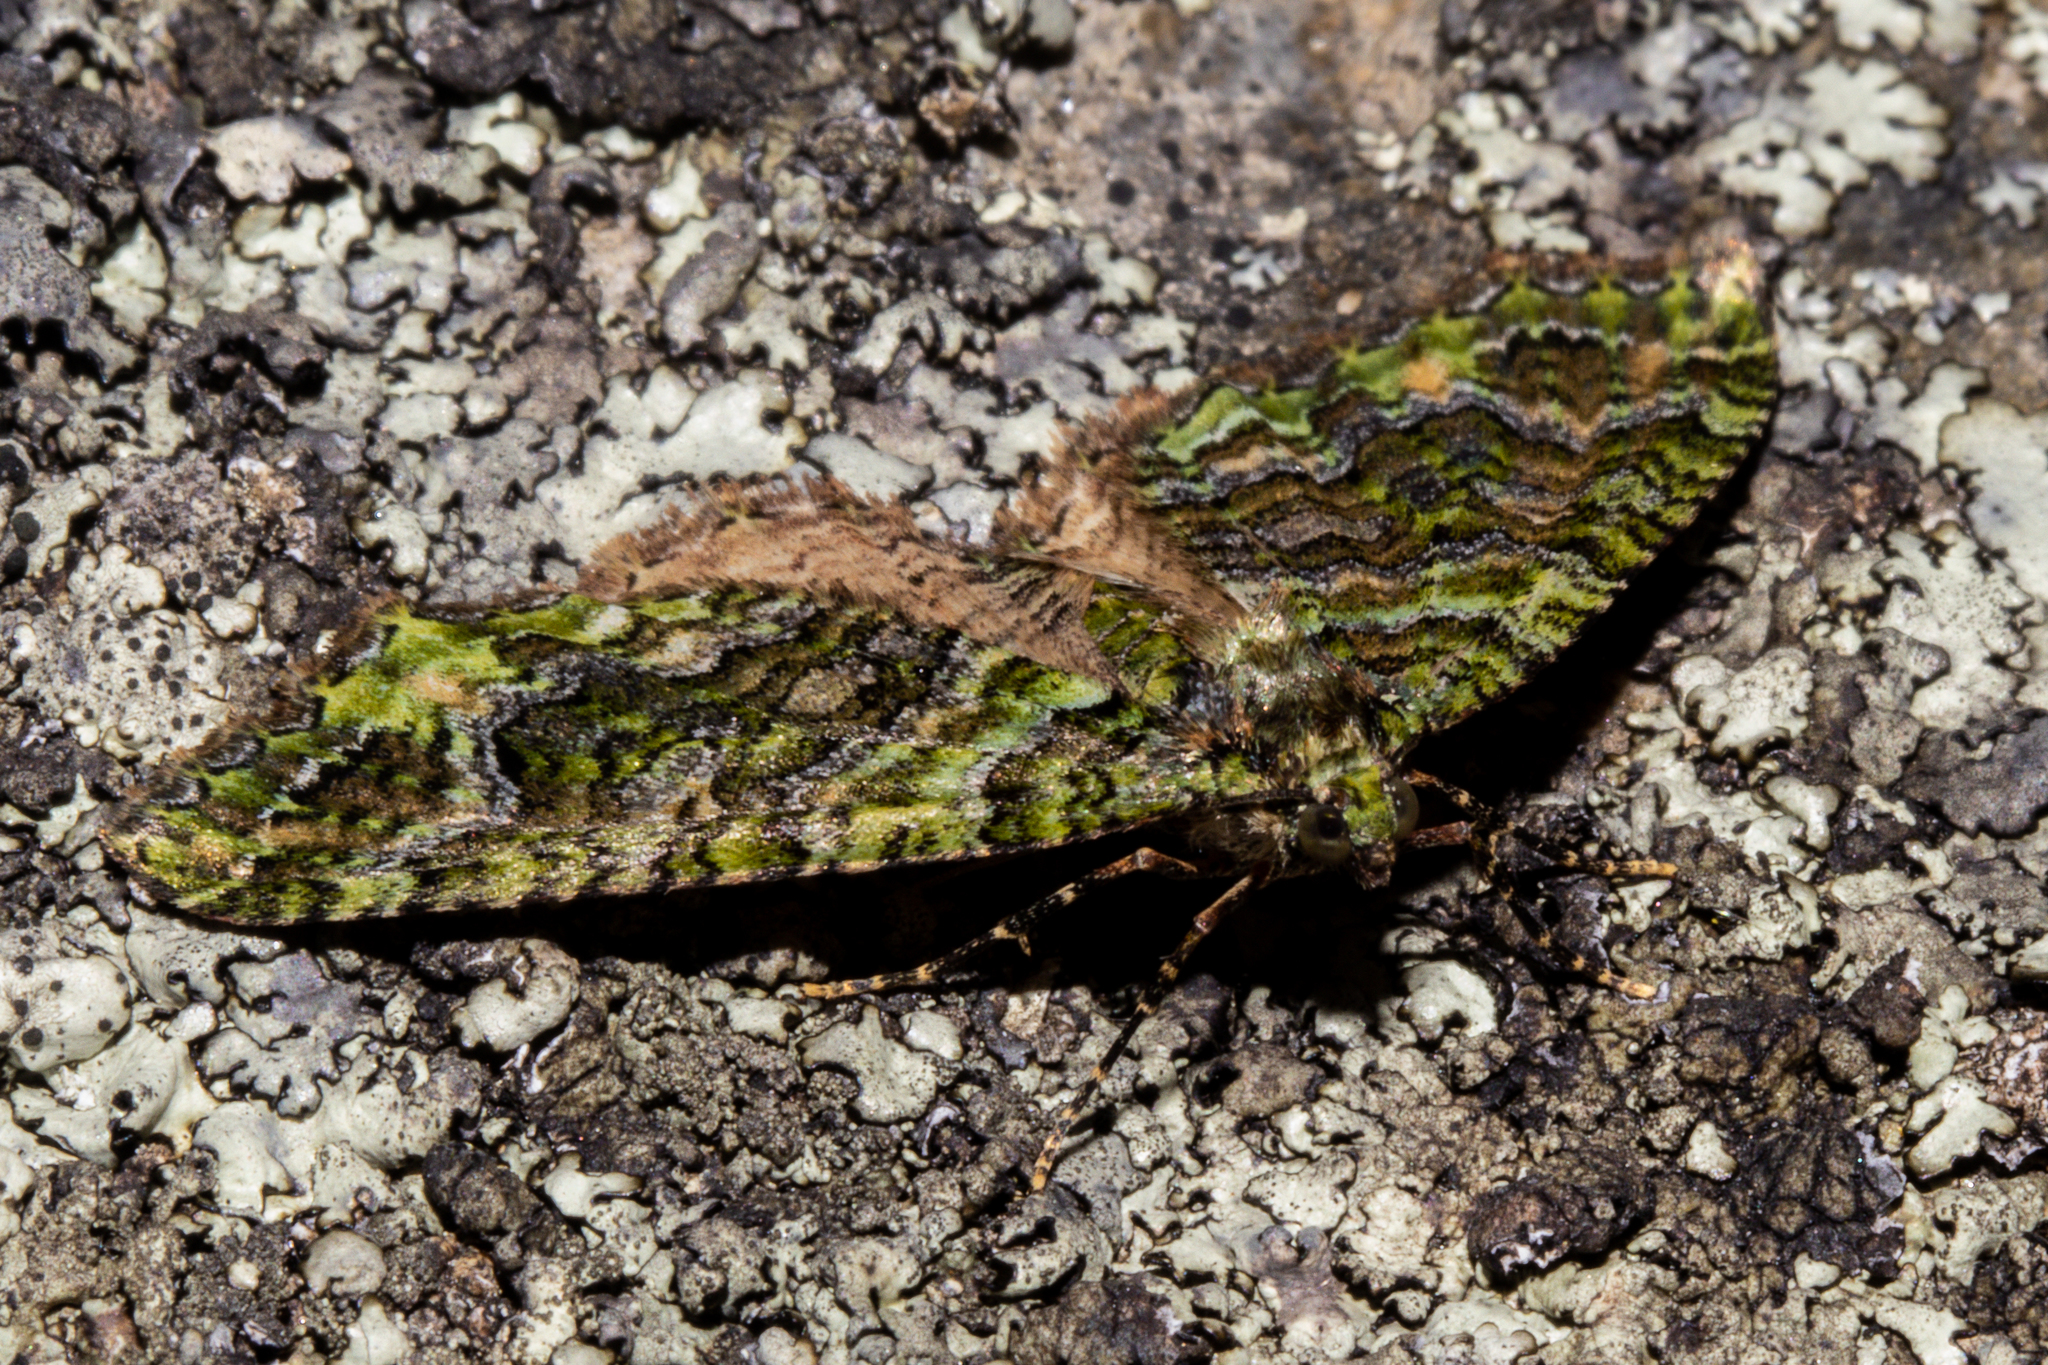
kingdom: Animalia
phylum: Arthropoda
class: Insecta
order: Lepidoptera
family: Geometridae
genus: Austrocidaria
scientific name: Austrocidaria similata
